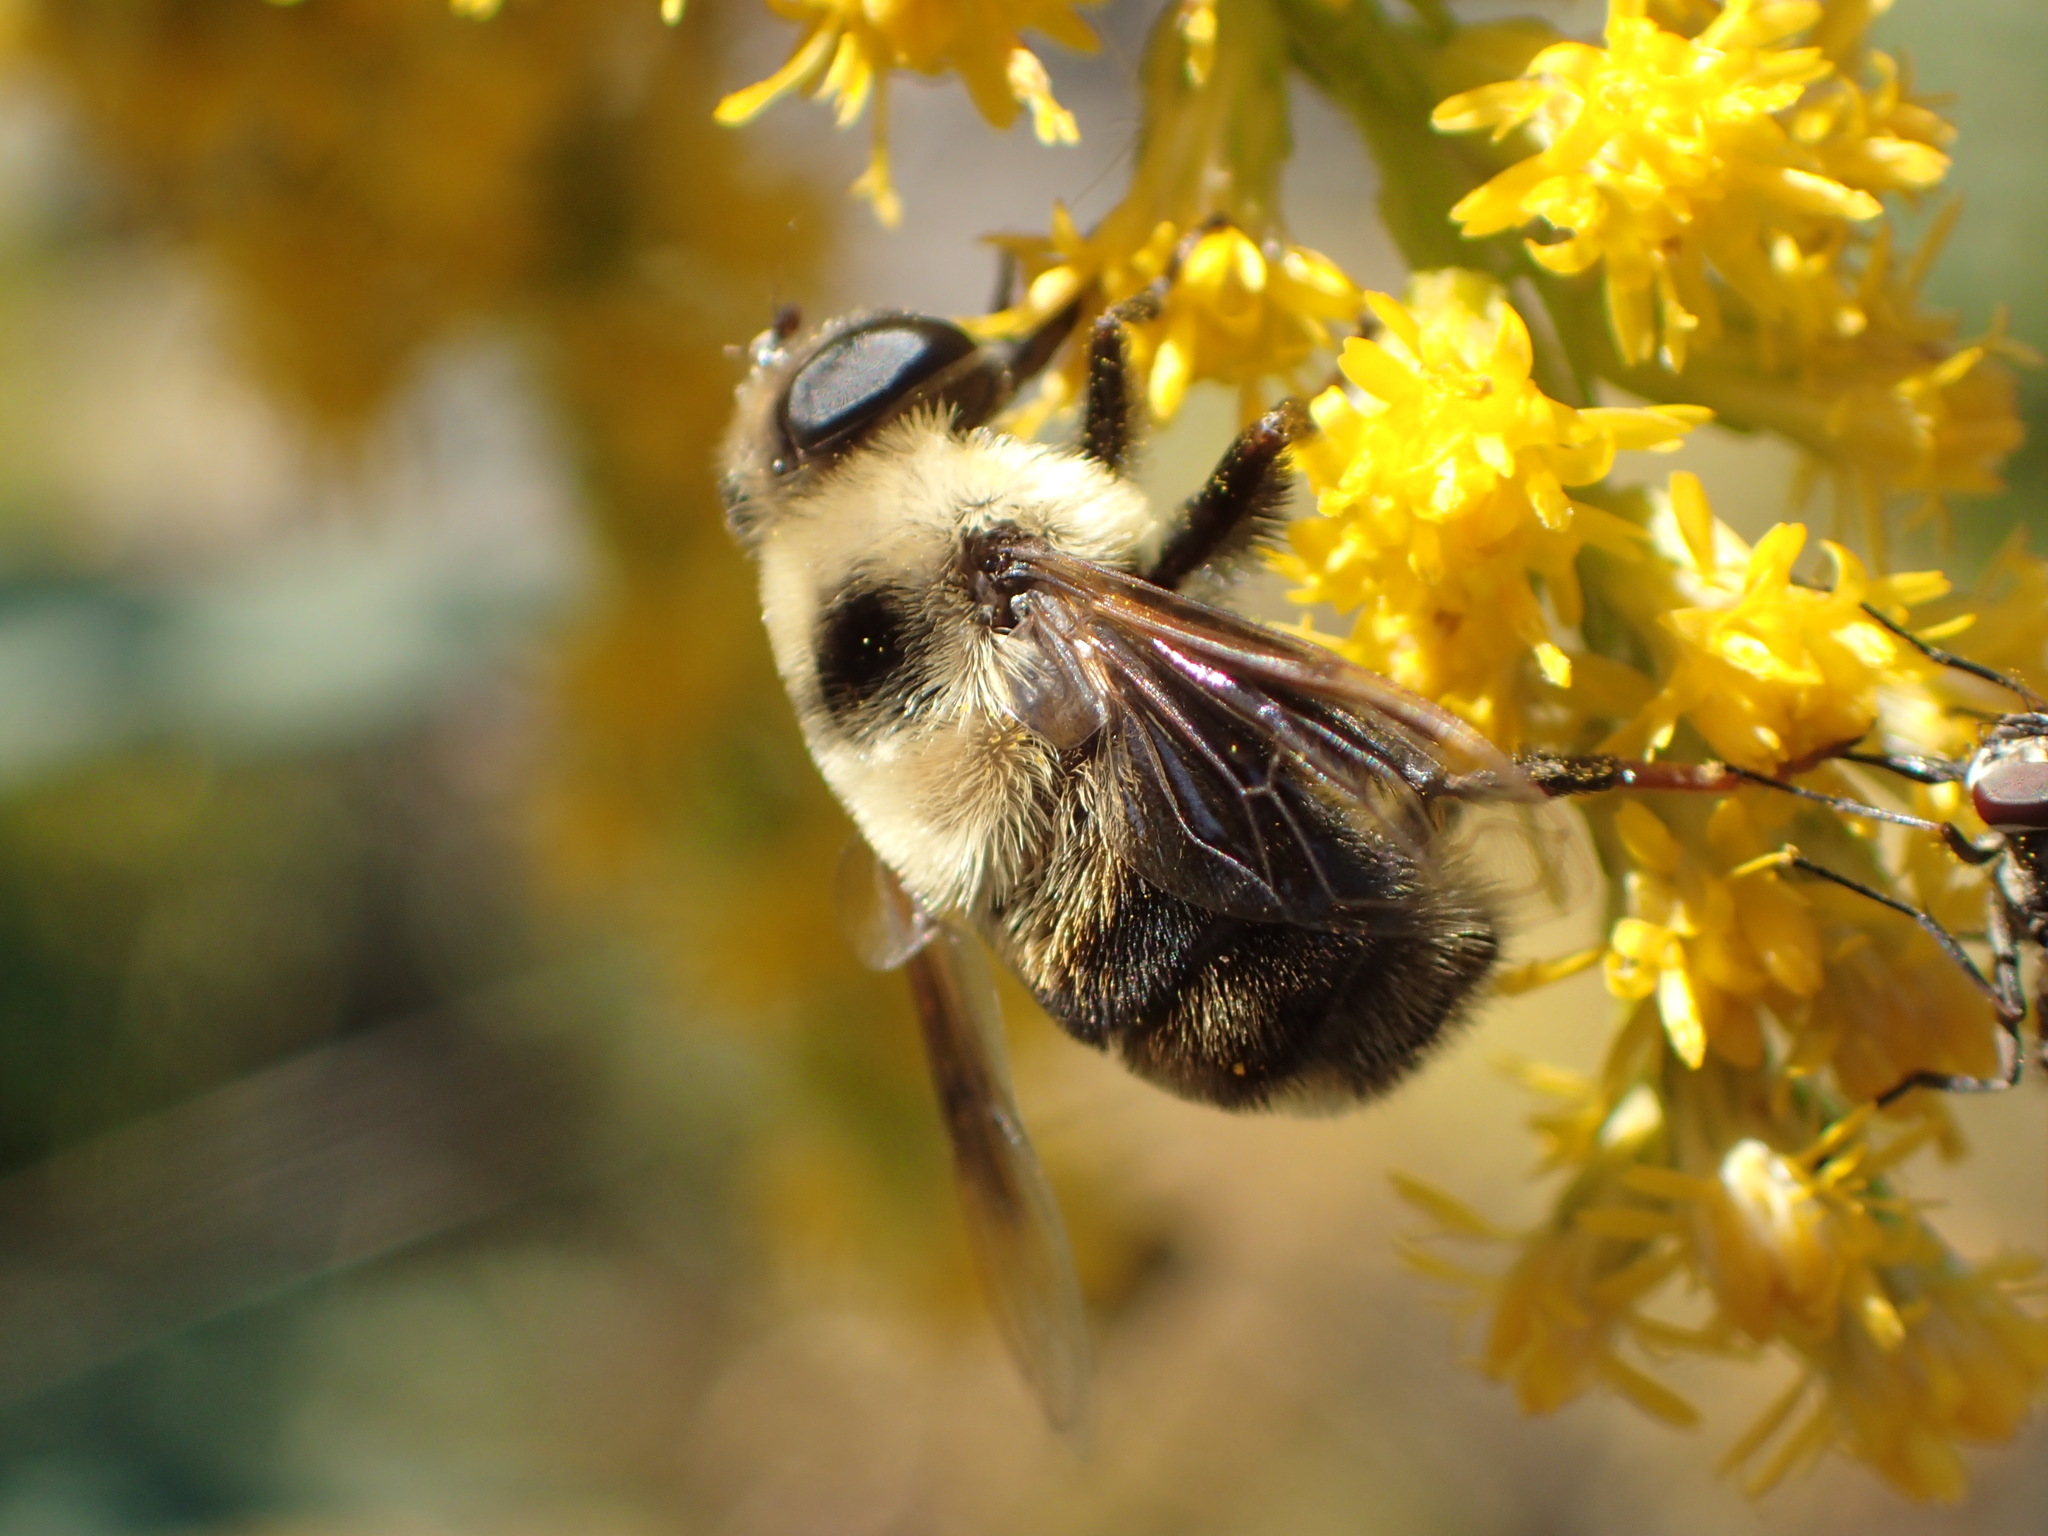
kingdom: Animalia
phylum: Arthropoda
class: Insecta
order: Diptera
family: Syrphidae
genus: Eristalis
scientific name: Eristalis flavipes
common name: Orange-legged drone fly
